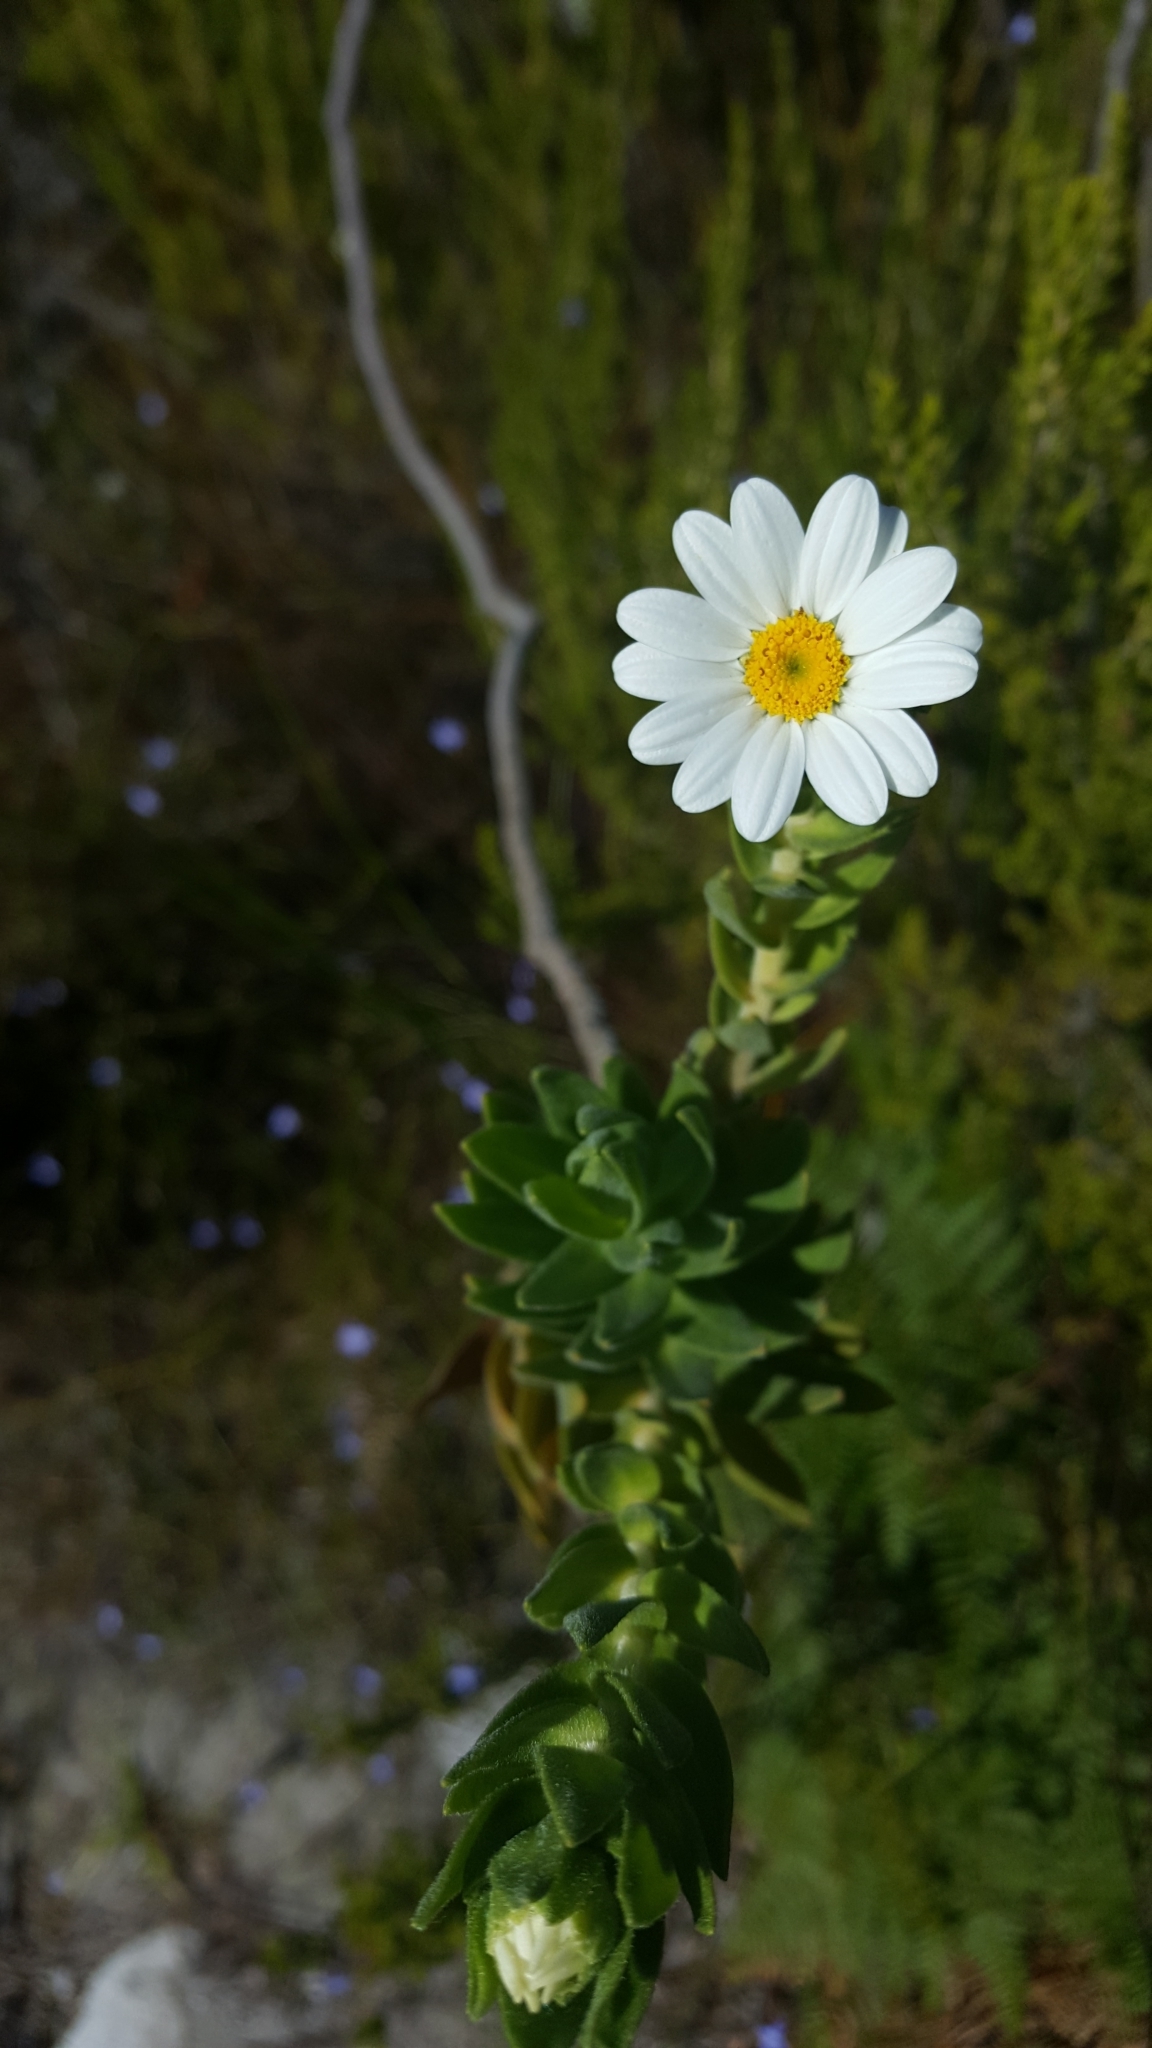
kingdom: Plantae
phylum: Tracheophyta
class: Magnoliopsida
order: Asterales
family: Asteraceae
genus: Osmitopsis
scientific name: Osmitopsis asteriscoides
